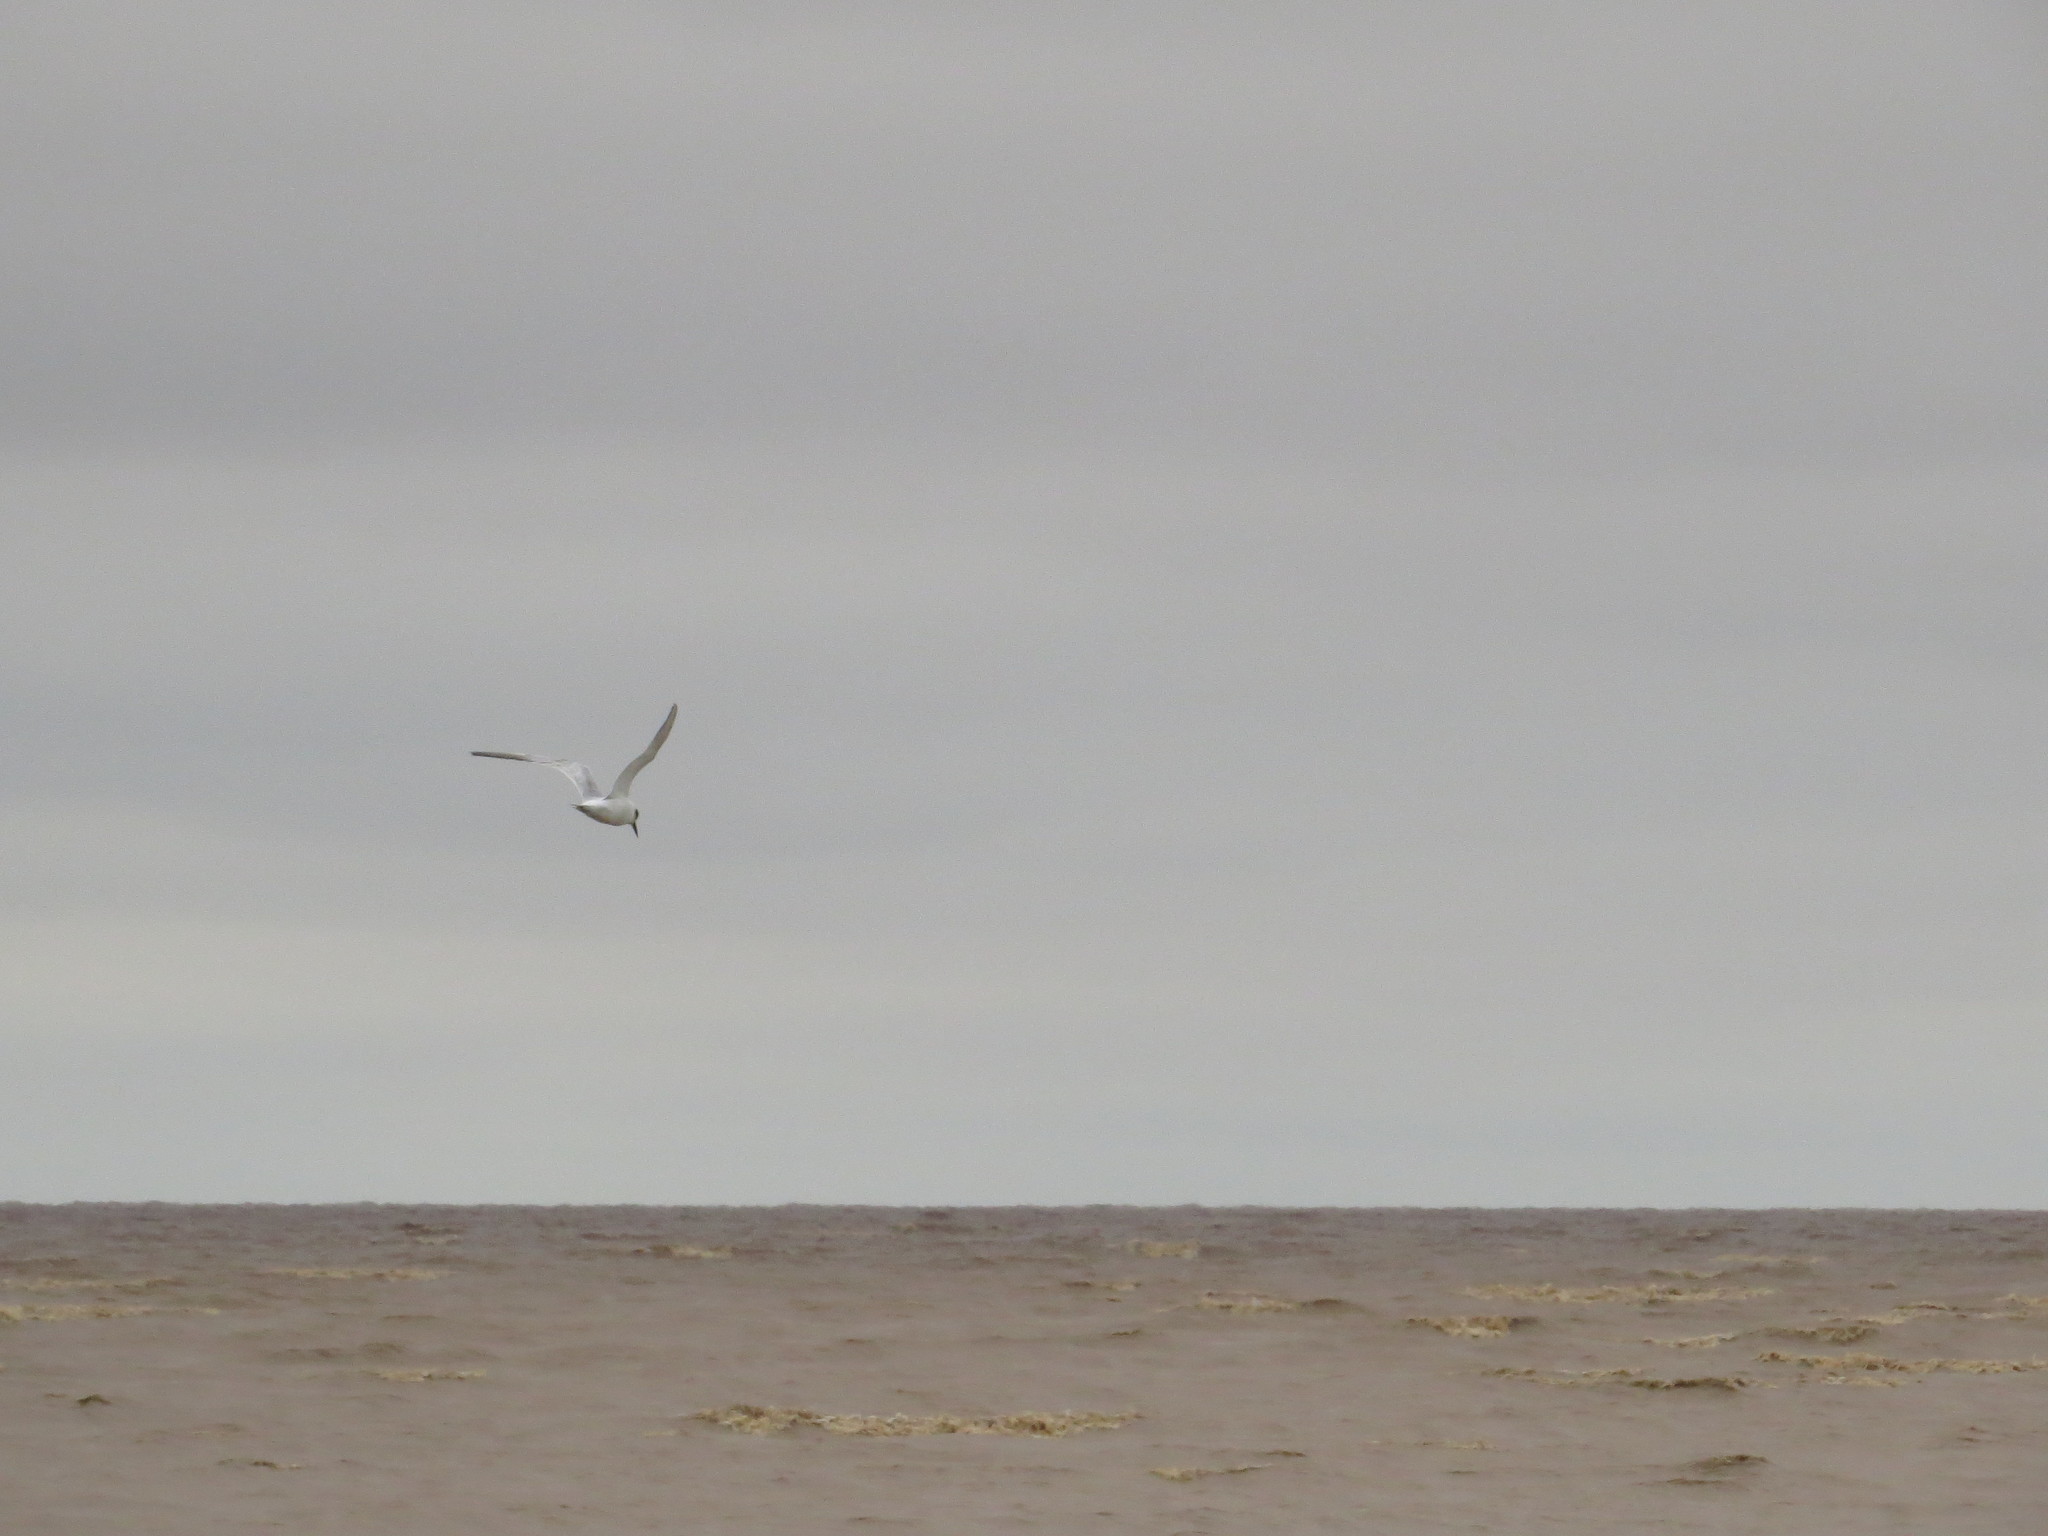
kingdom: Animalia
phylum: Chordata
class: Aves
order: Charadriiformes
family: Laridae
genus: Sterna
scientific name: Sterna trudeaui
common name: Snowy-crowned tern
